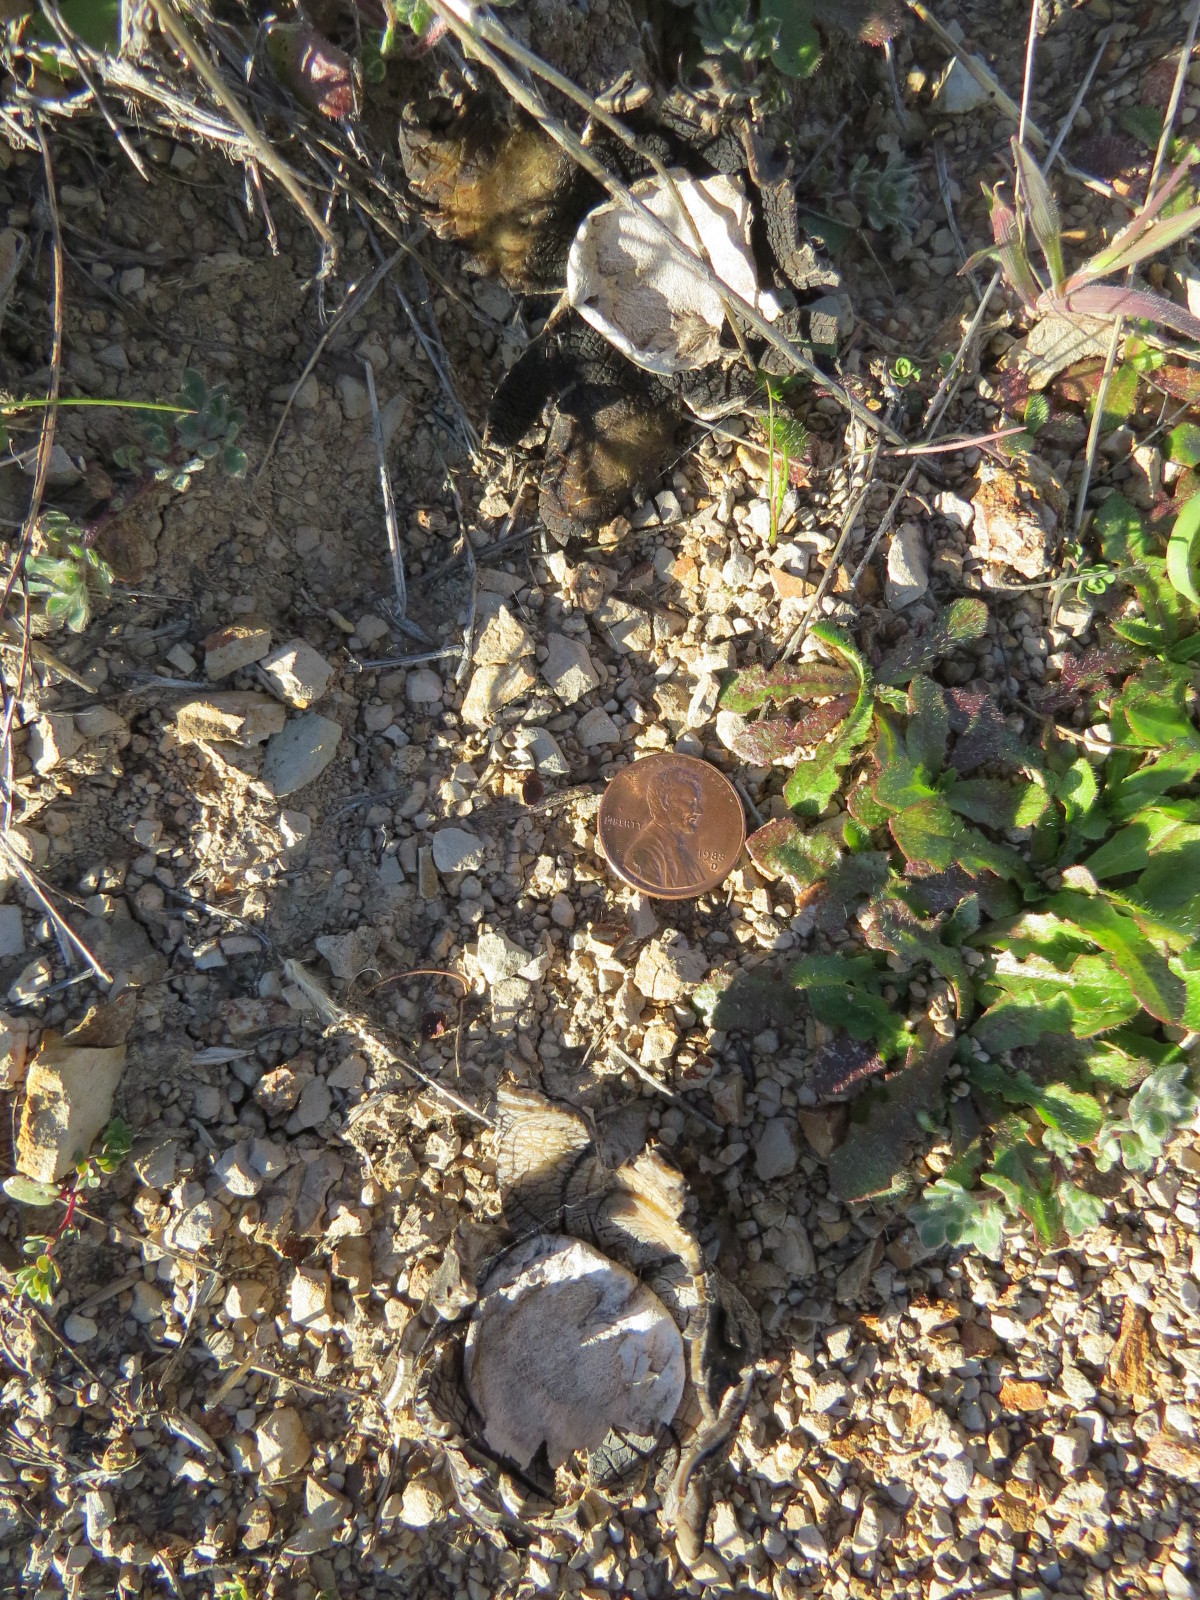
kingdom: Fungi
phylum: Basidiomycota
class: Agaricomycetes
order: Boletales
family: Diplocystidiaceae
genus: Astraeus
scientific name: Astraeus hygrometricus
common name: Barometer earthstar
